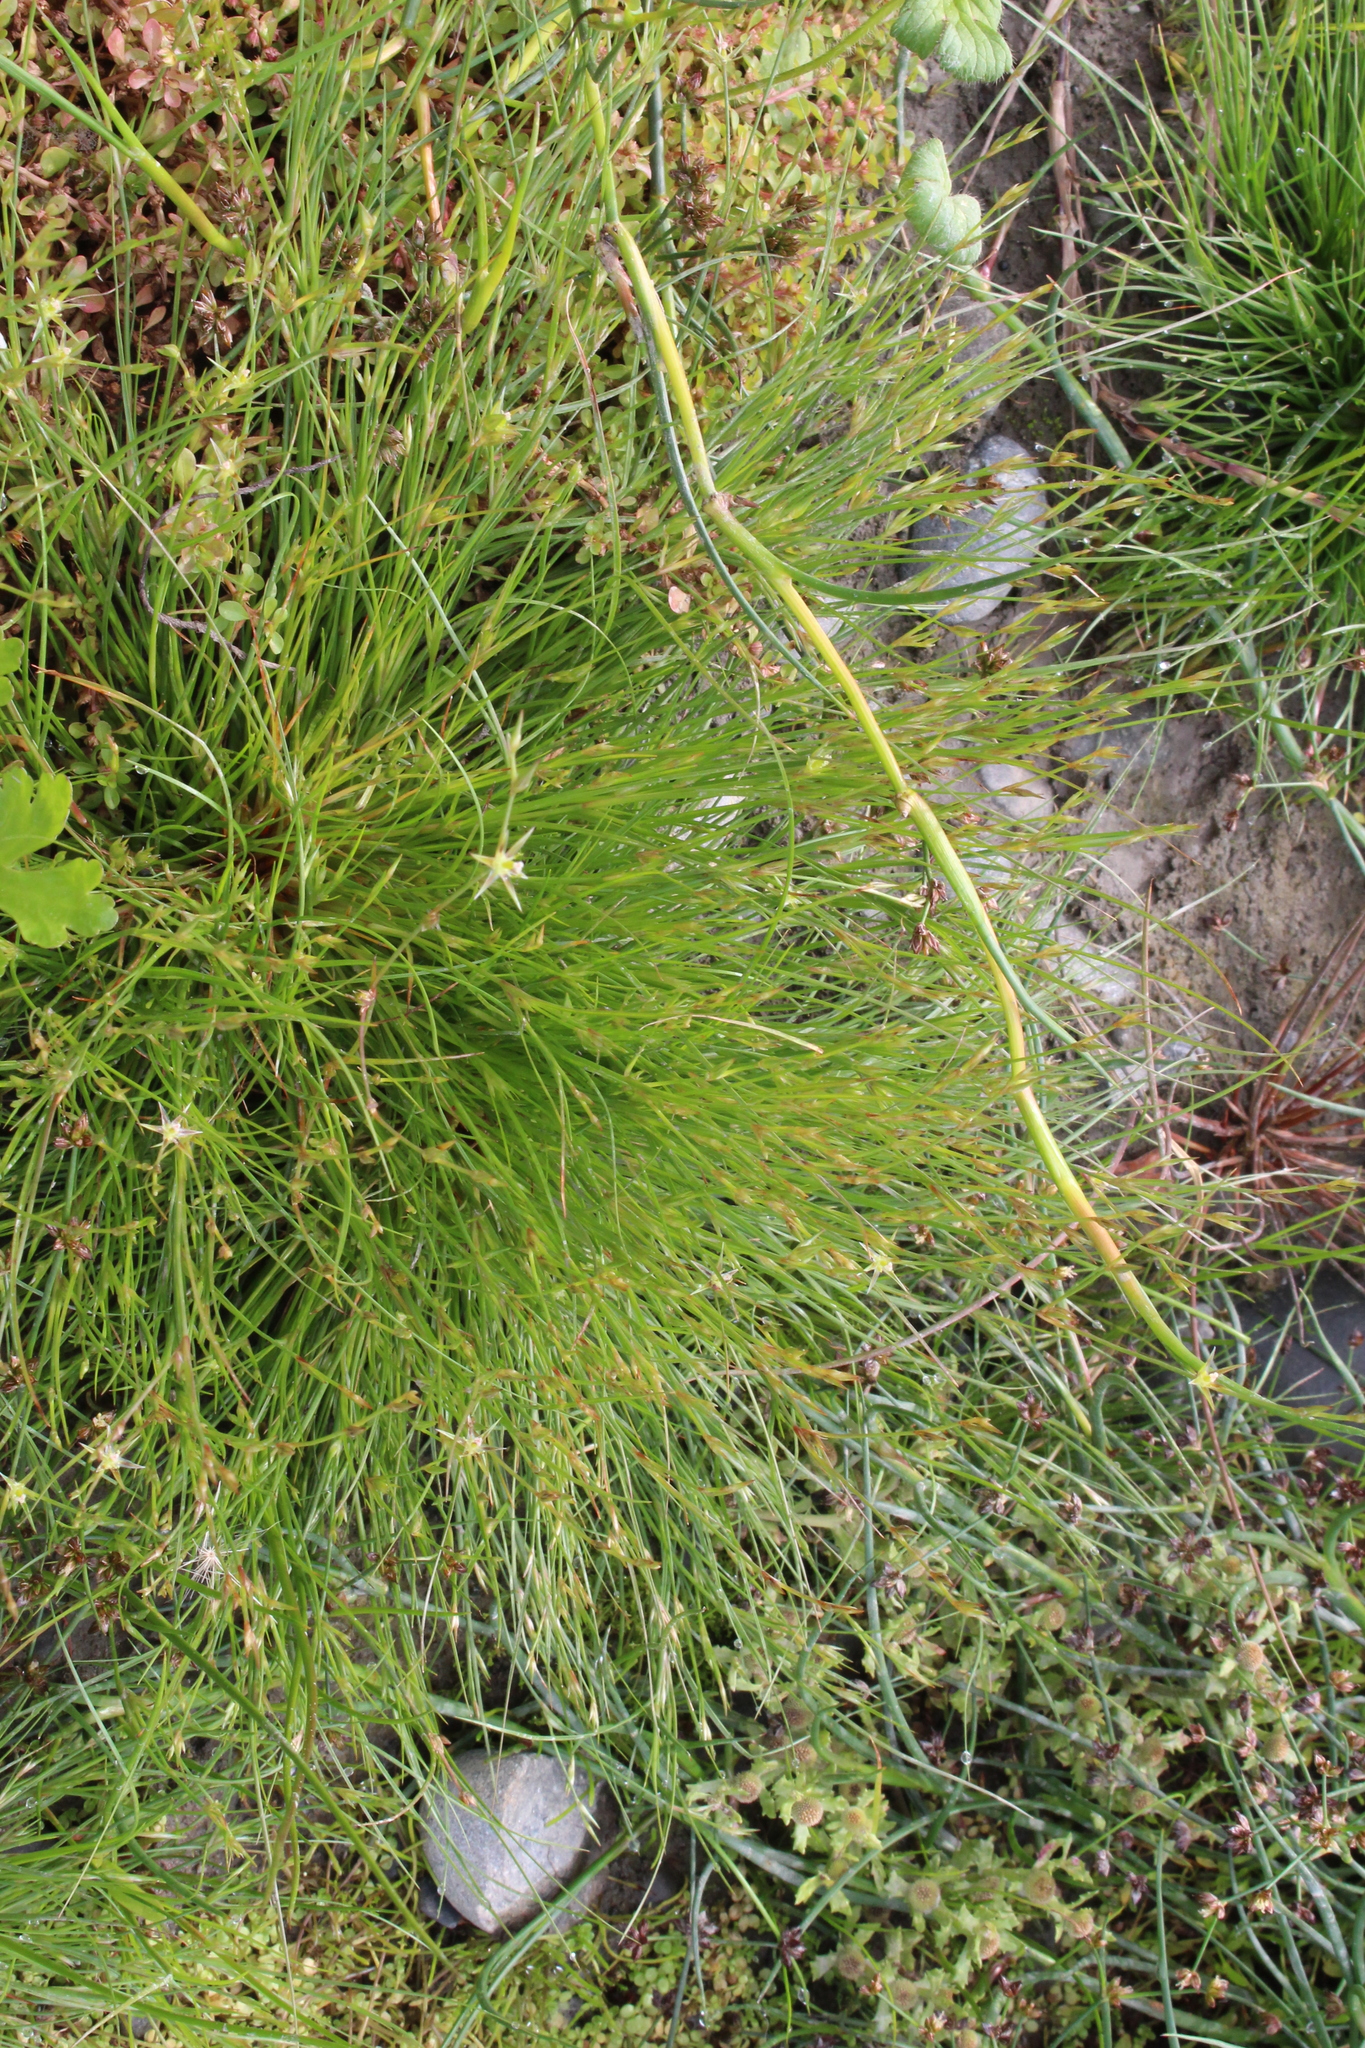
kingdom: Plantae
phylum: Tracheophyta
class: Liliopsida
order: Poales
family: Juncaceae
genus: Juncus
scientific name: Juncus bufonius
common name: Toad rush
